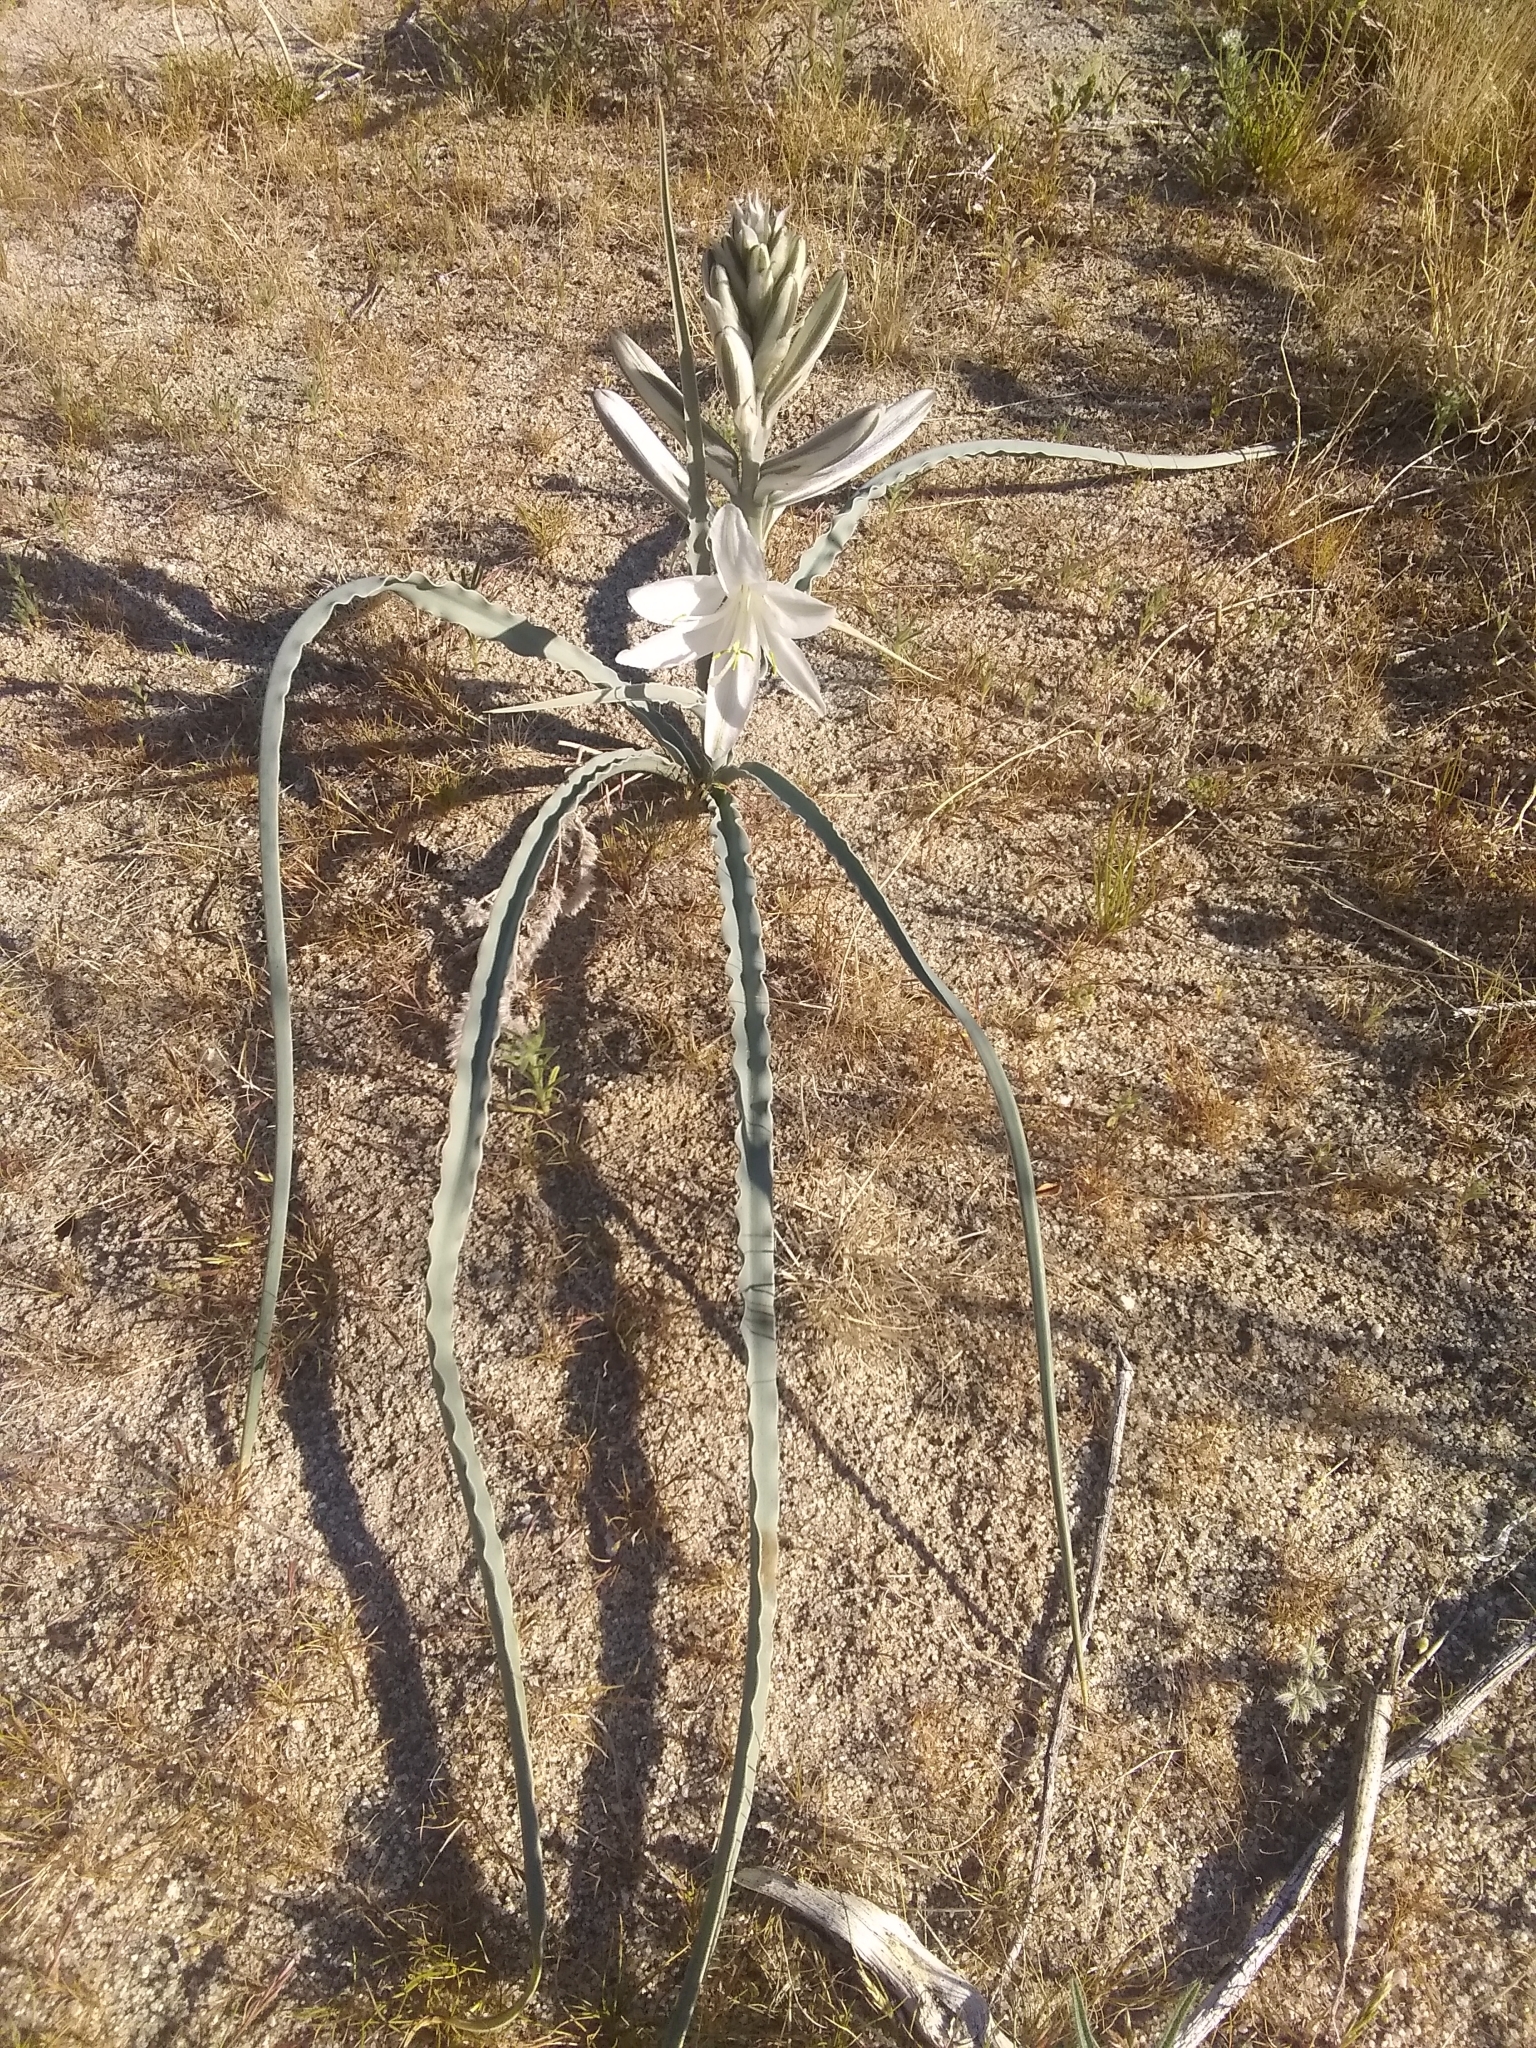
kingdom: Plantae
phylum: Tracheophyta
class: Liliopsida
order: Asparagales
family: Asparagaceae
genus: Hesperocallis
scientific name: Hesperocallis undulata
